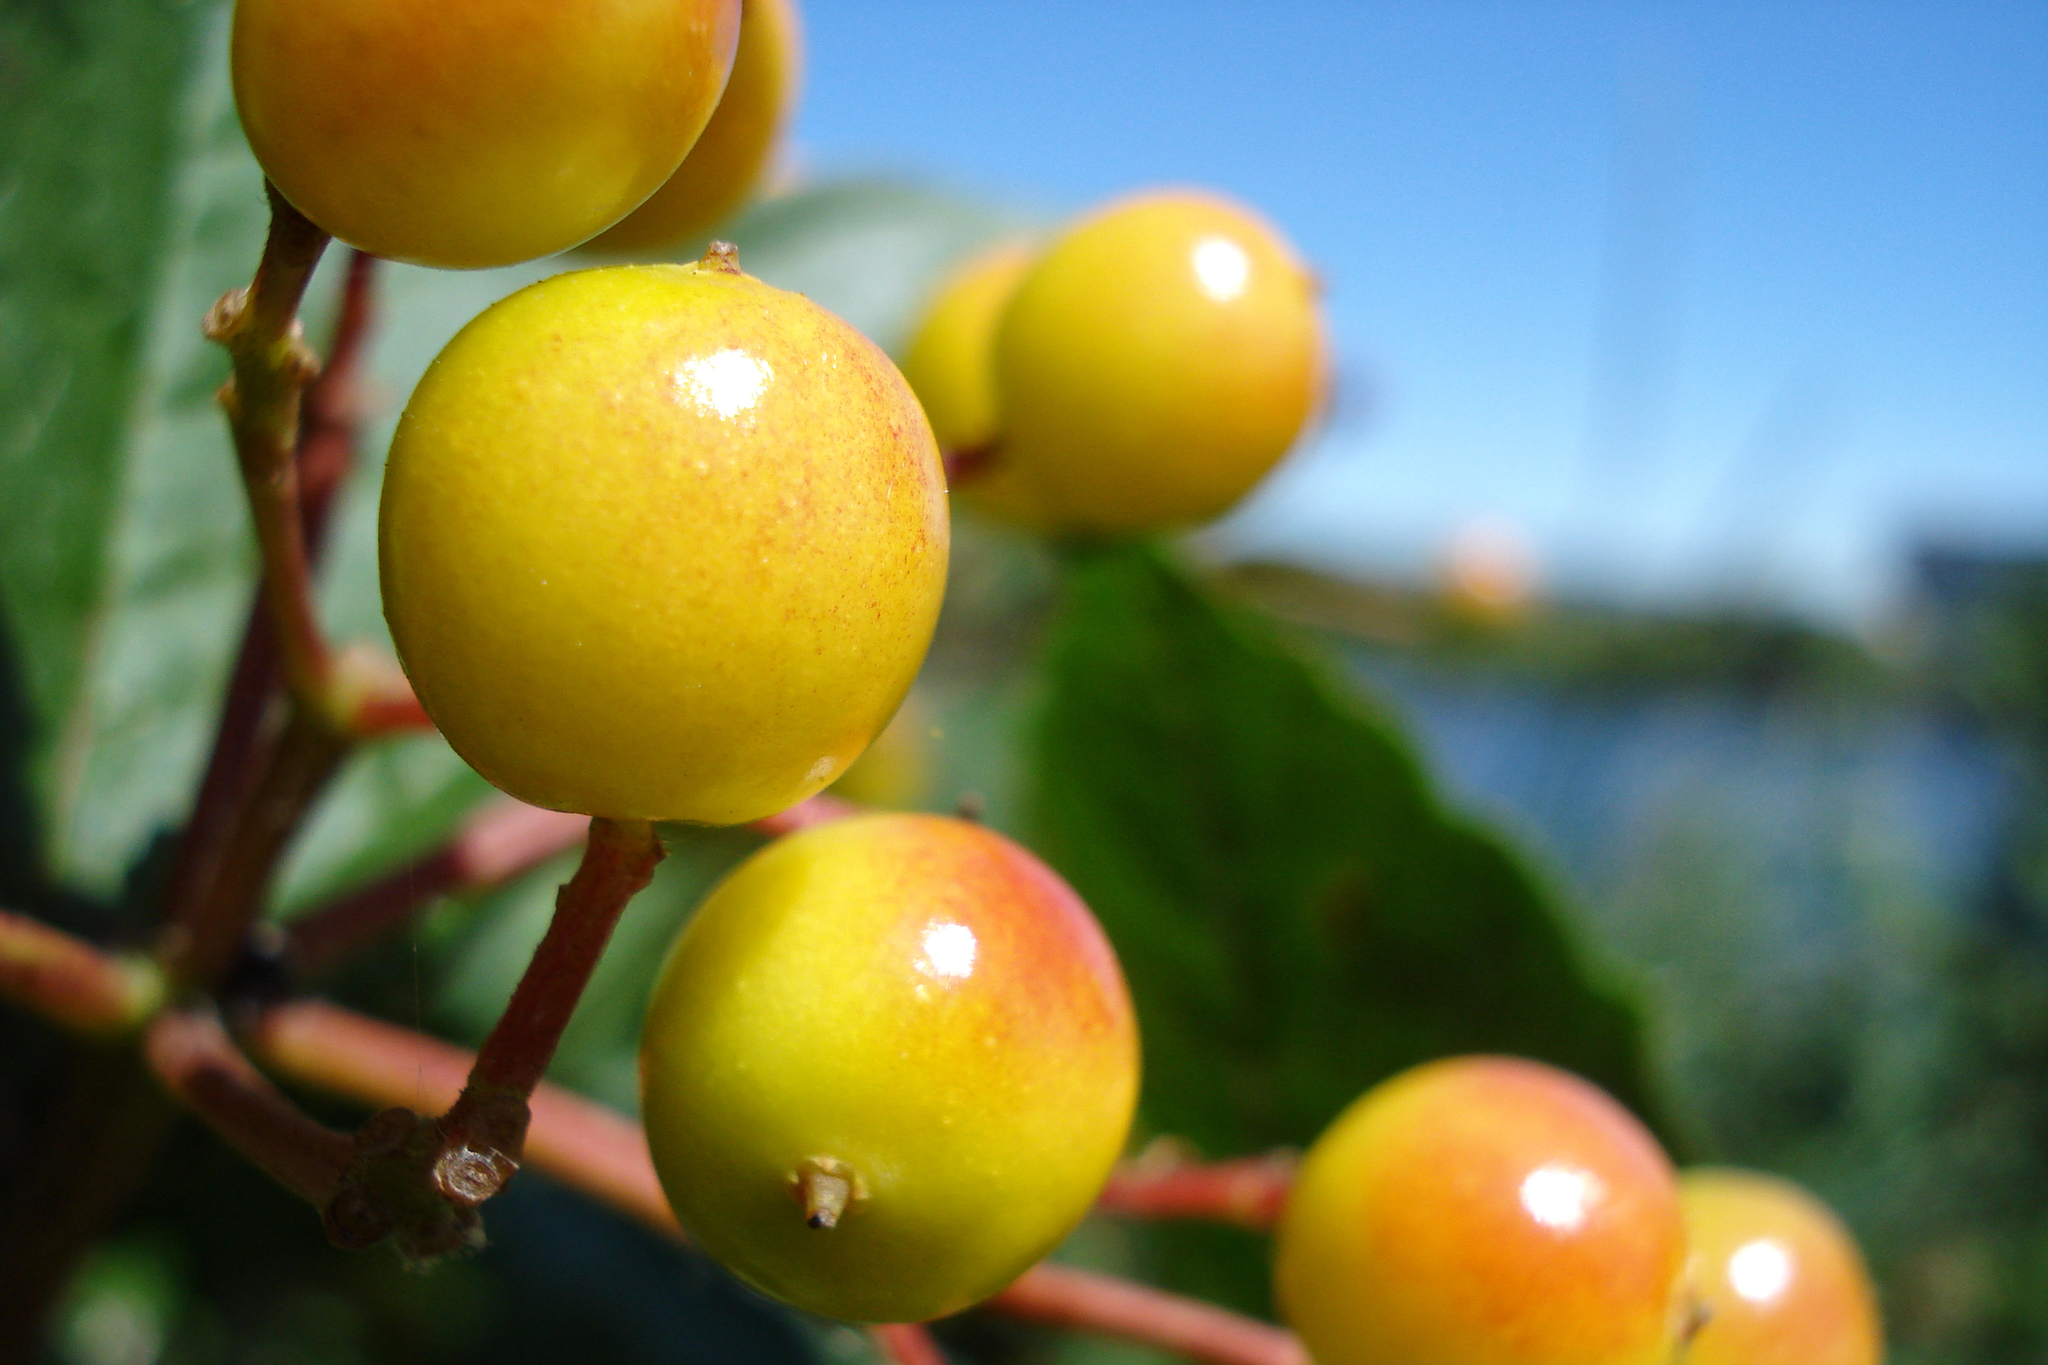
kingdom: Plantae
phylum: Tracheophyta
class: Magnoliopsida
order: Dipsacales
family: Viburnaceae
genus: Viburnum
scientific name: Viburnum opulus
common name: Guelder-rose
